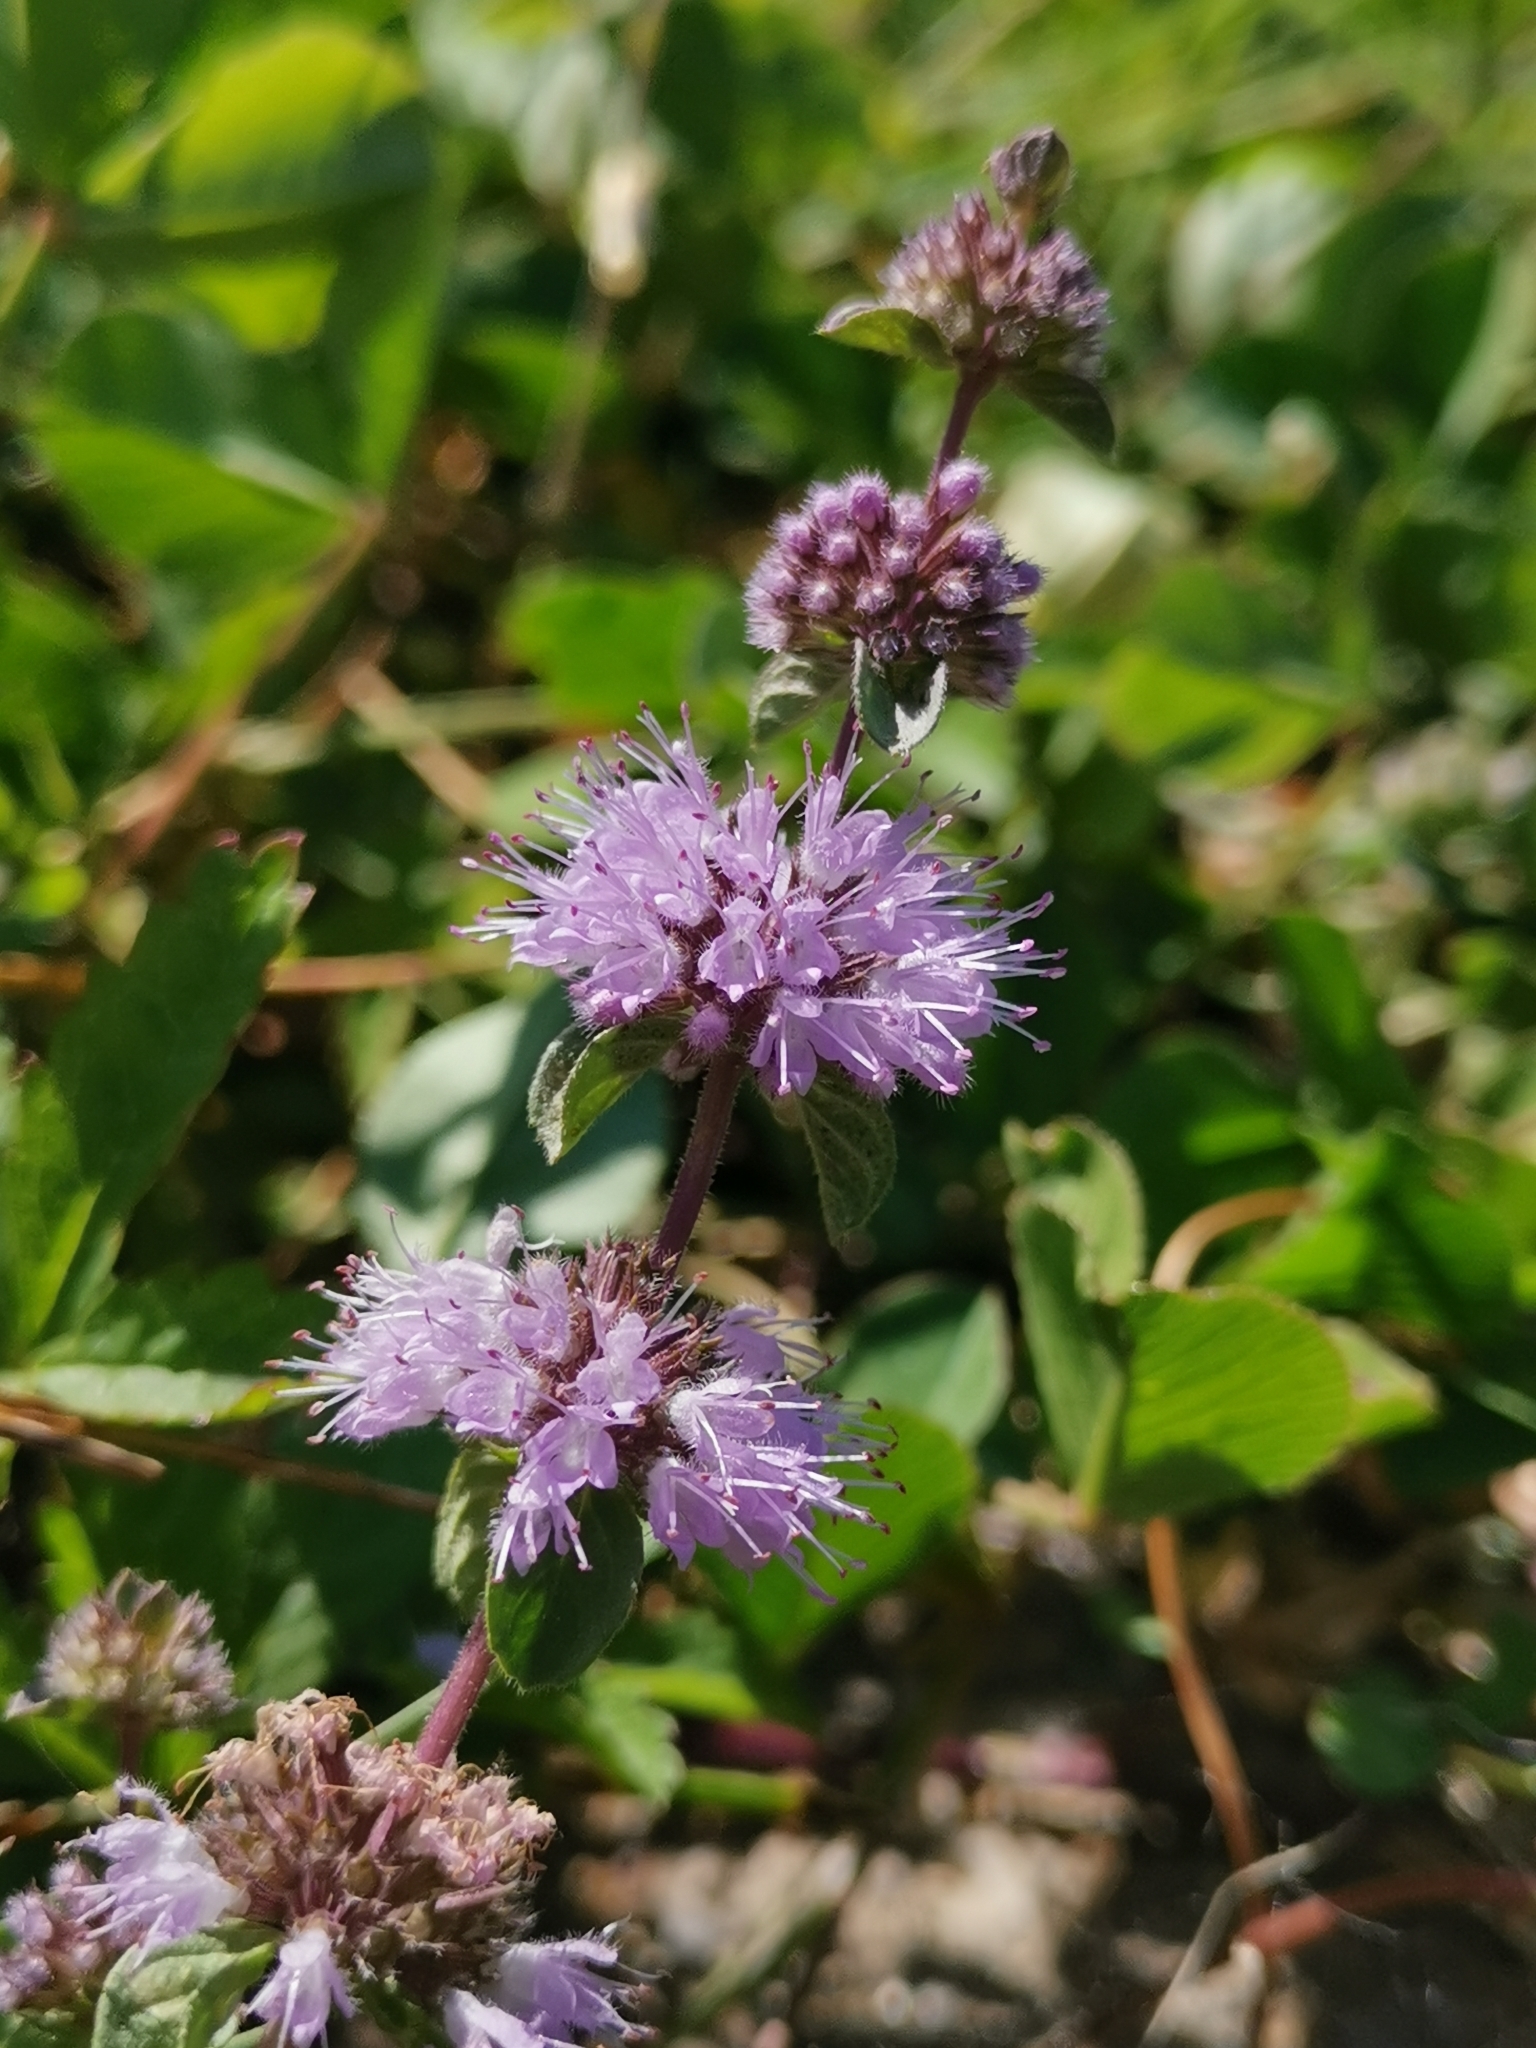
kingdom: Plantae
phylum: Tracheophyta
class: Magnoliopsida
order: Lamiales
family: Lamiaceae
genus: Mentha
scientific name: Mentha pulegium
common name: Pennyroyal
